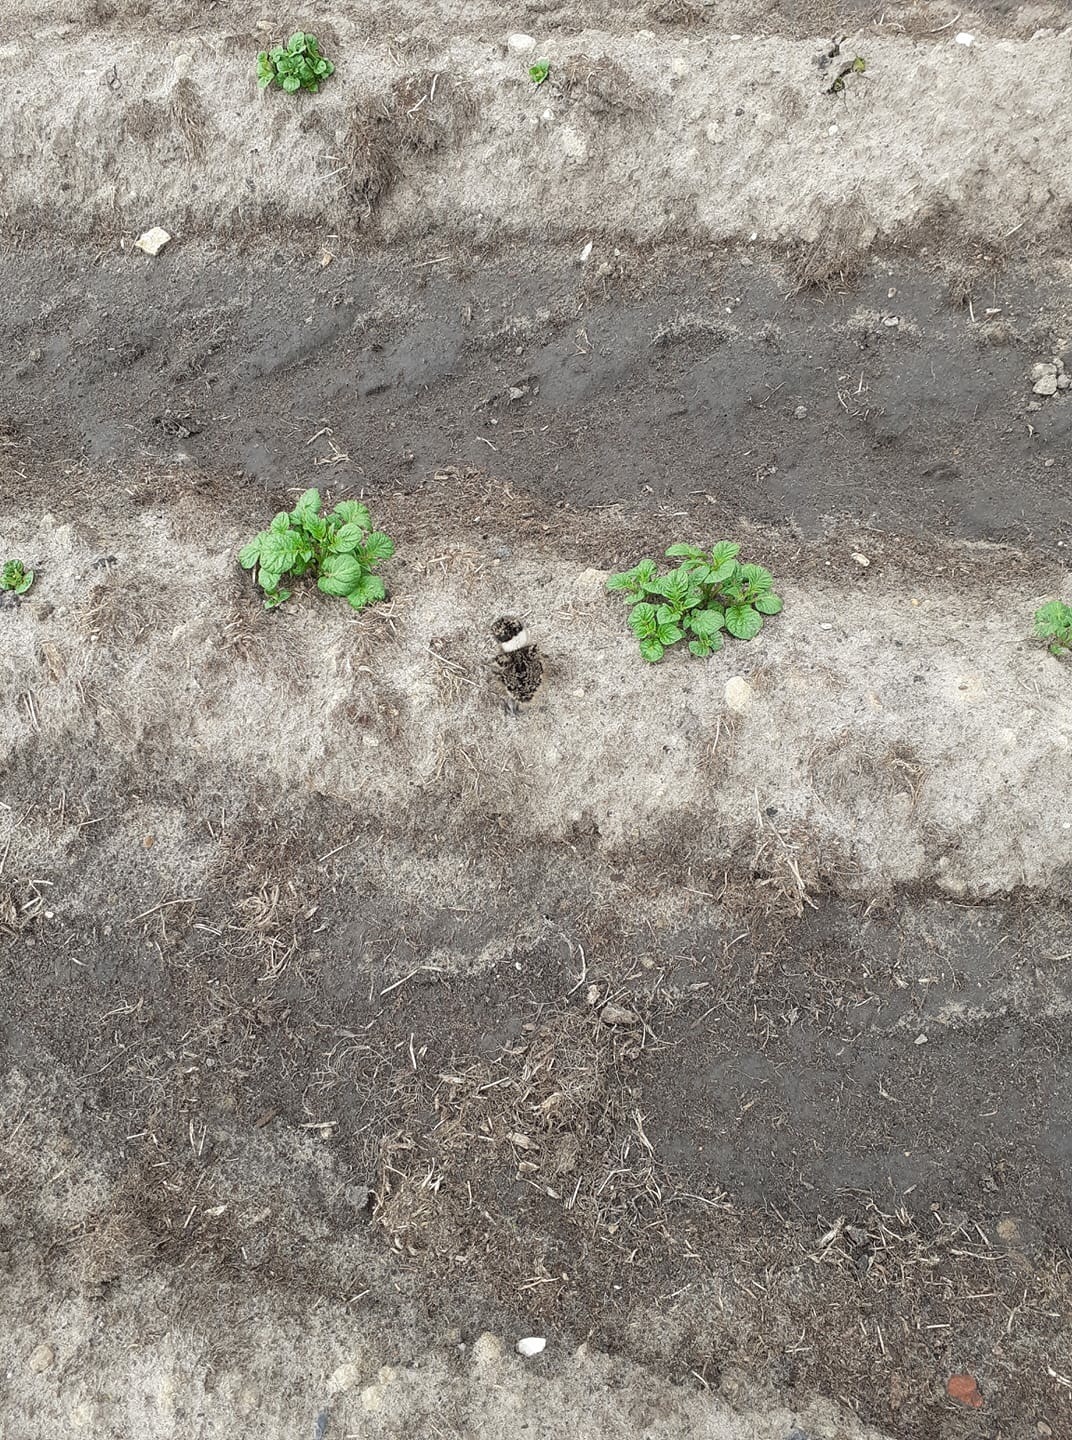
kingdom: Animalia
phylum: Chordata
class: Aves
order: Charadriiformes
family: Charadriidae
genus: Vanellus
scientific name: Vanellus vanellus
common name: Northern lapwing
